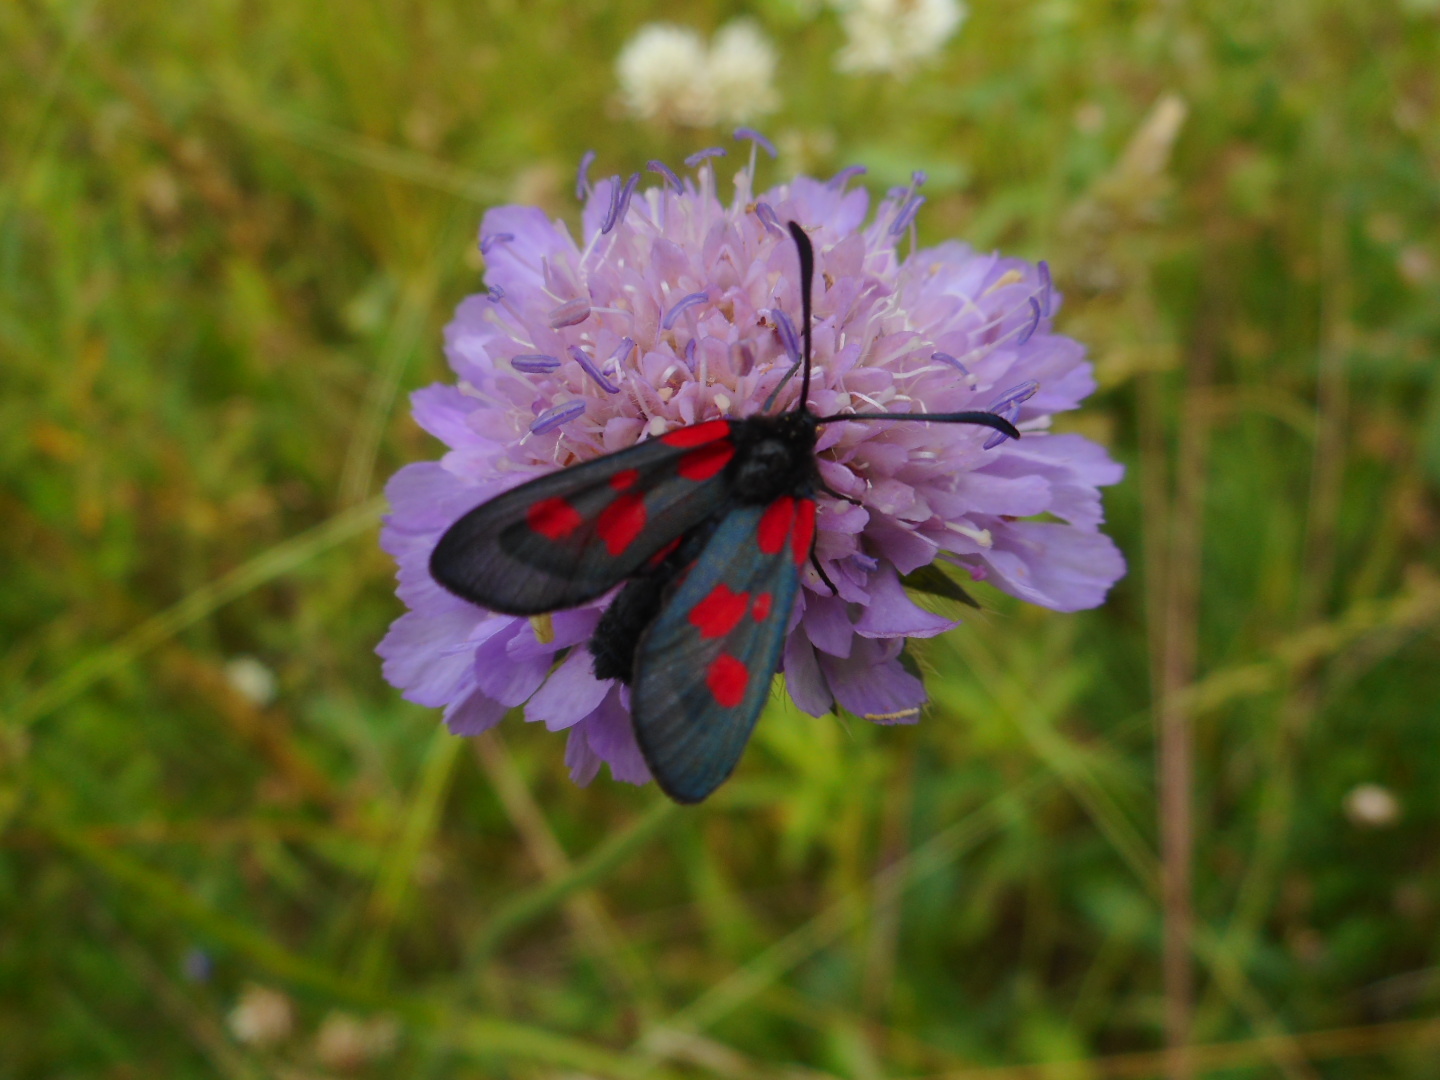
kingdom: Animalia
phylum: Arthropoda
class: Insecta
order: Lepidoptera
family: Zygaenidae
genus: Zygaena
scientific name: Zygaena viciae
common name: New forest burnet
